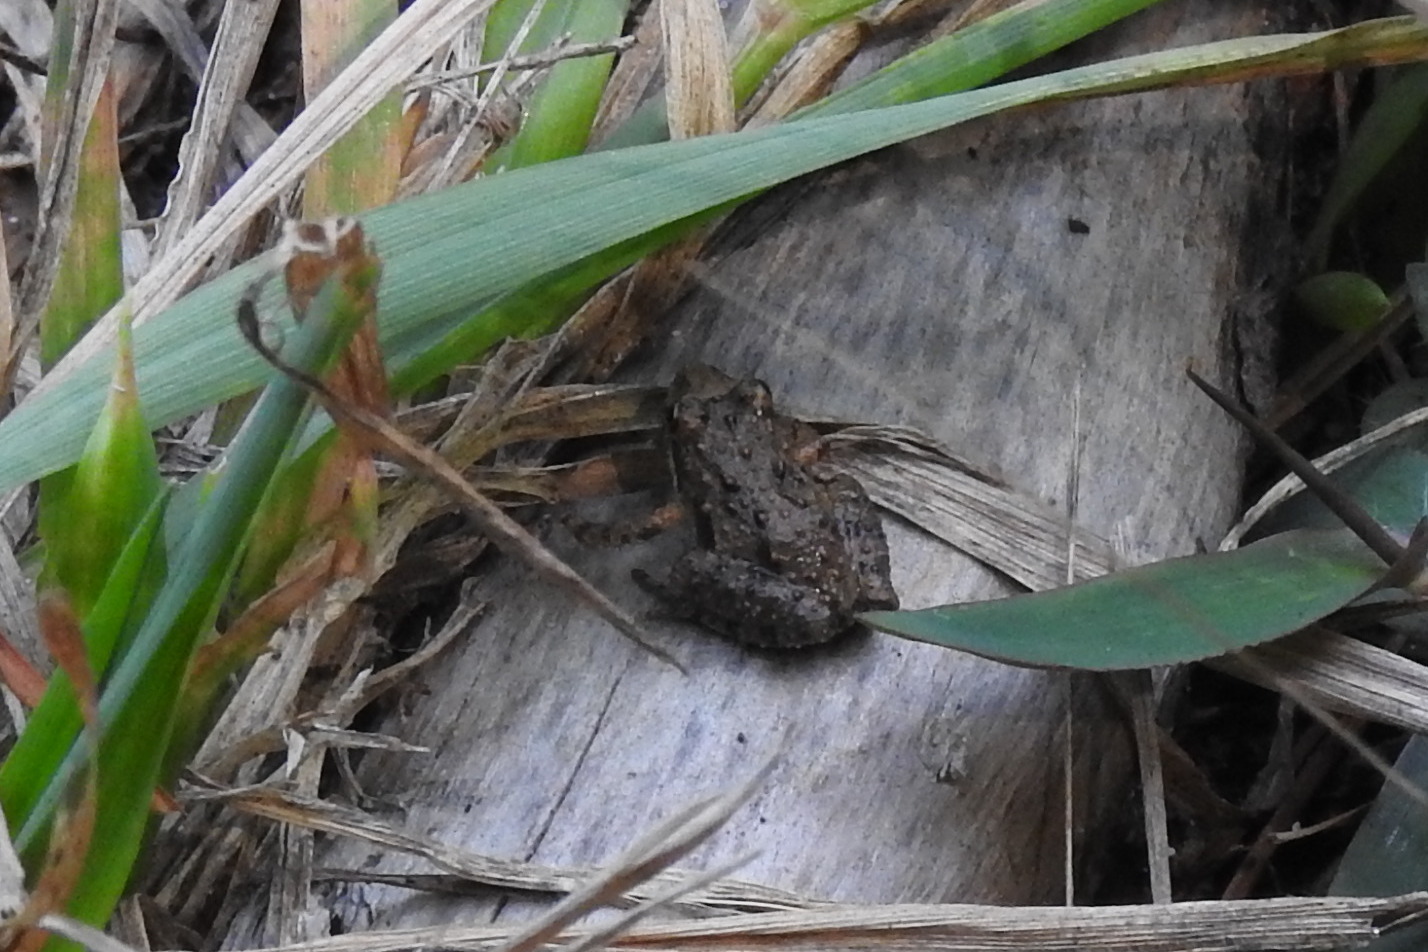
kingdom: Animalia
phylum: Chordata
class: Amphibia
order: Anura
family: Hylidae
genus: Acris
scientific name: Acris crepitans
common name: Northern cricket frog
